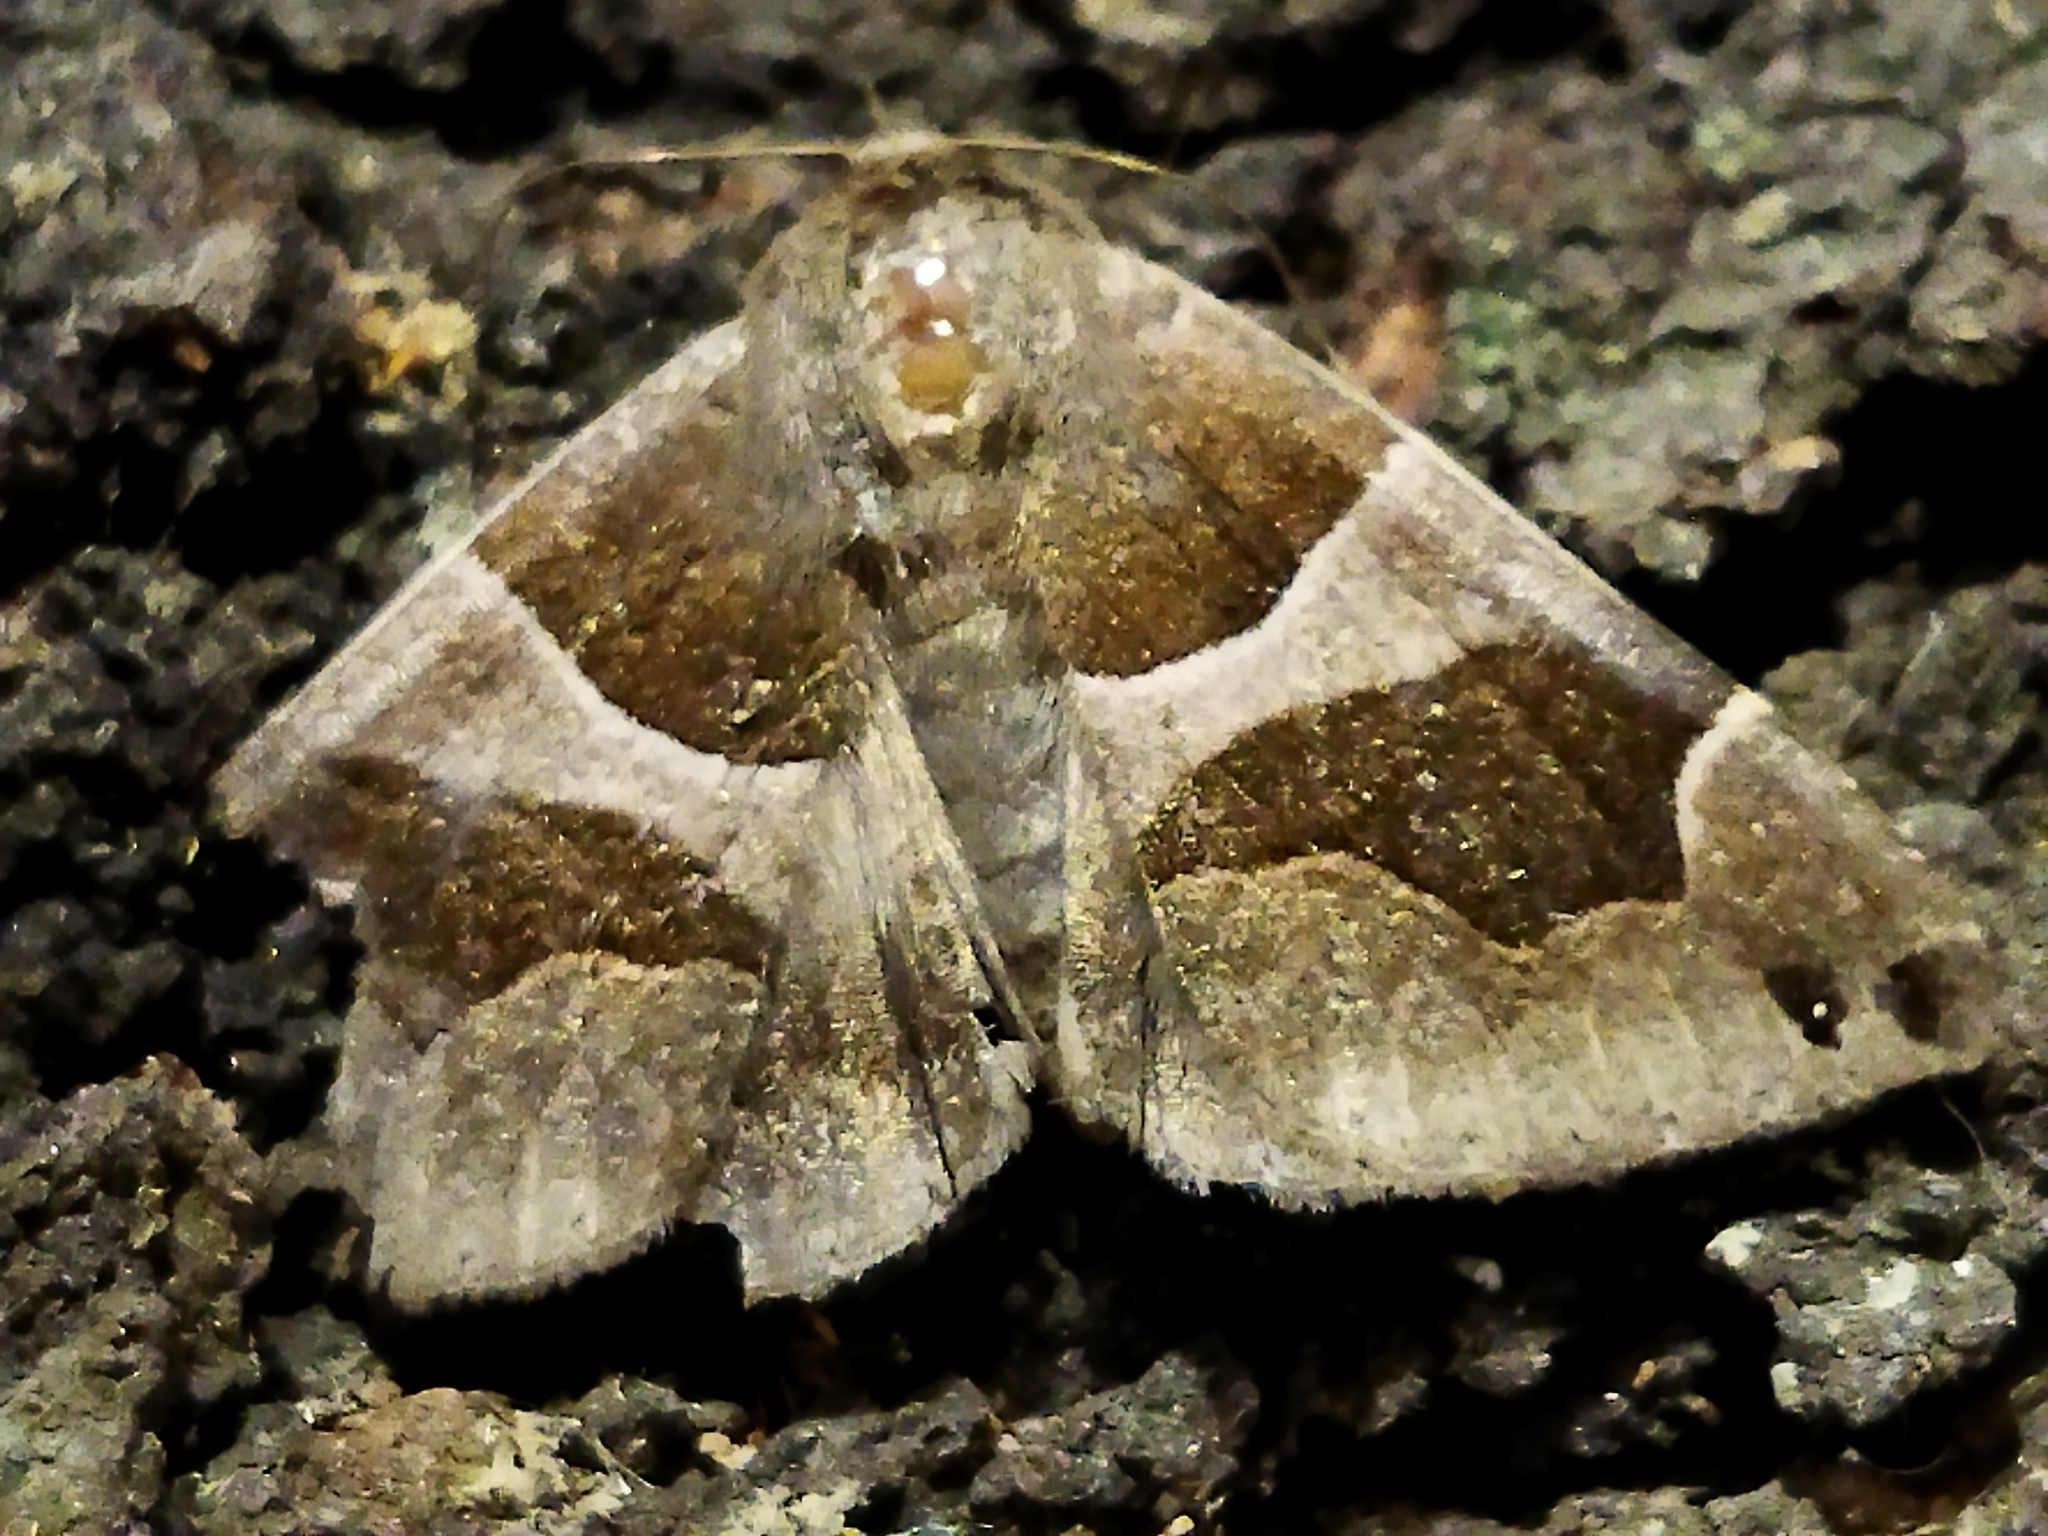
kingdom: Animalia
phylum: Arthropoda
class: Insecta
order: Lepidoptera
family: Erebidae
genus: Dysgonia
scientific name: Dysgonia algira
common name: Passenger
